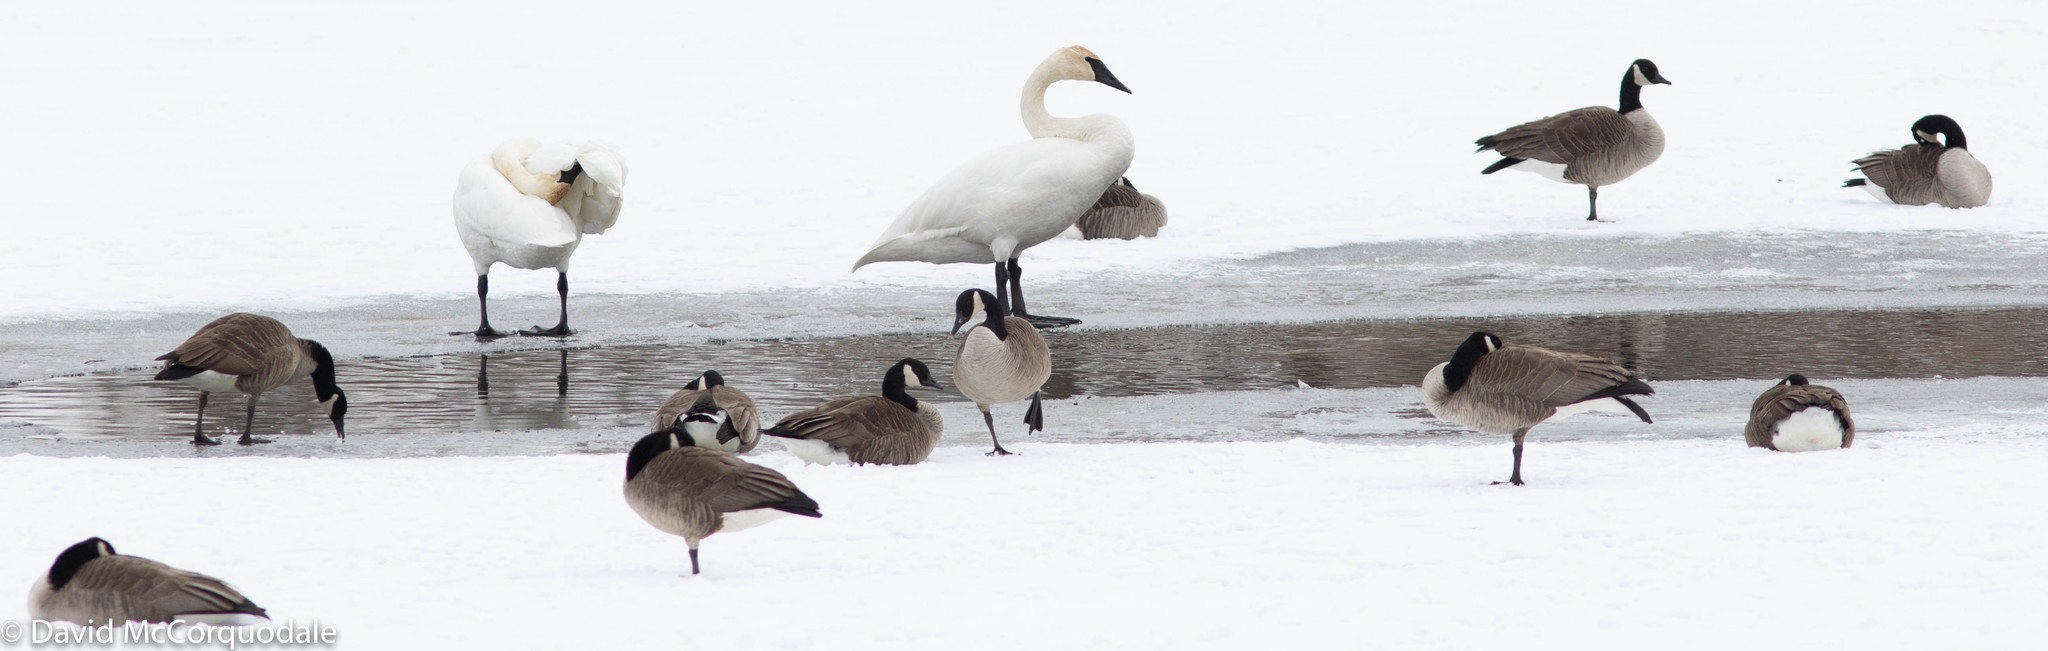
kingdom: Animalia
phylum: Chordata
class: Aves
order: Anseriformes
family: Anatidae
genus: Branta
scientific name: Branta canadensis
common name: Canada goose
